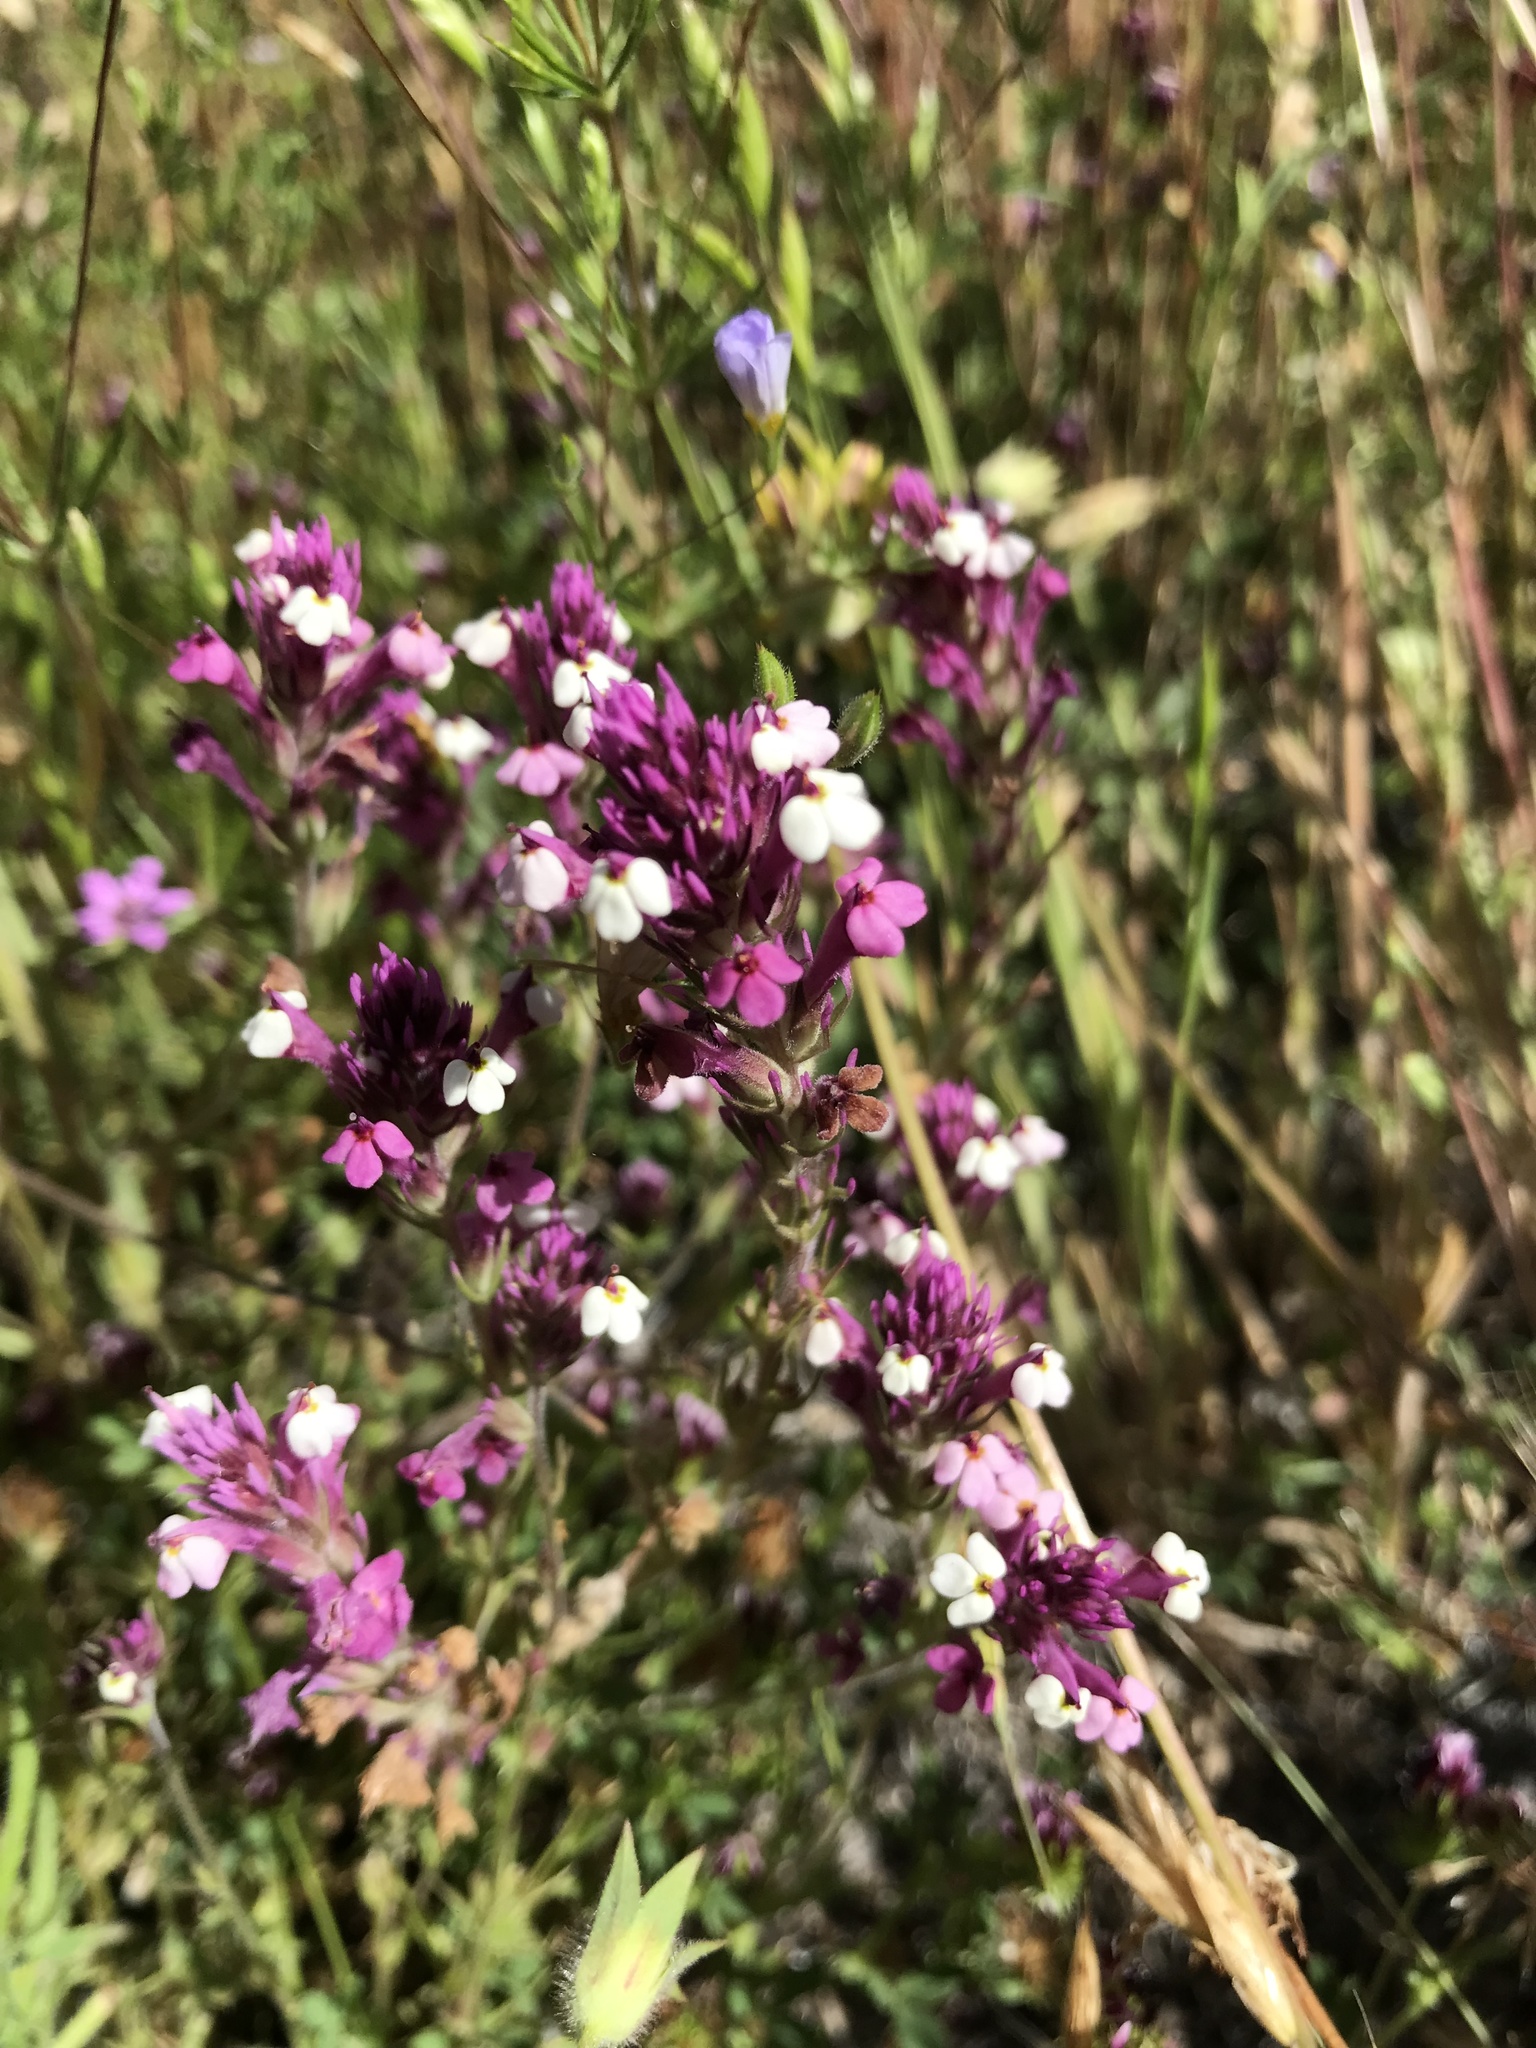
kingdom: Plantae
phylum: Tracheophyta
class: Magnoliopsida
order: Lamiales
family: Orobanchaceae
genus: Castilleja
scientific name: Castilleja densiflora
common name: Dense-flower indian paintbrush
